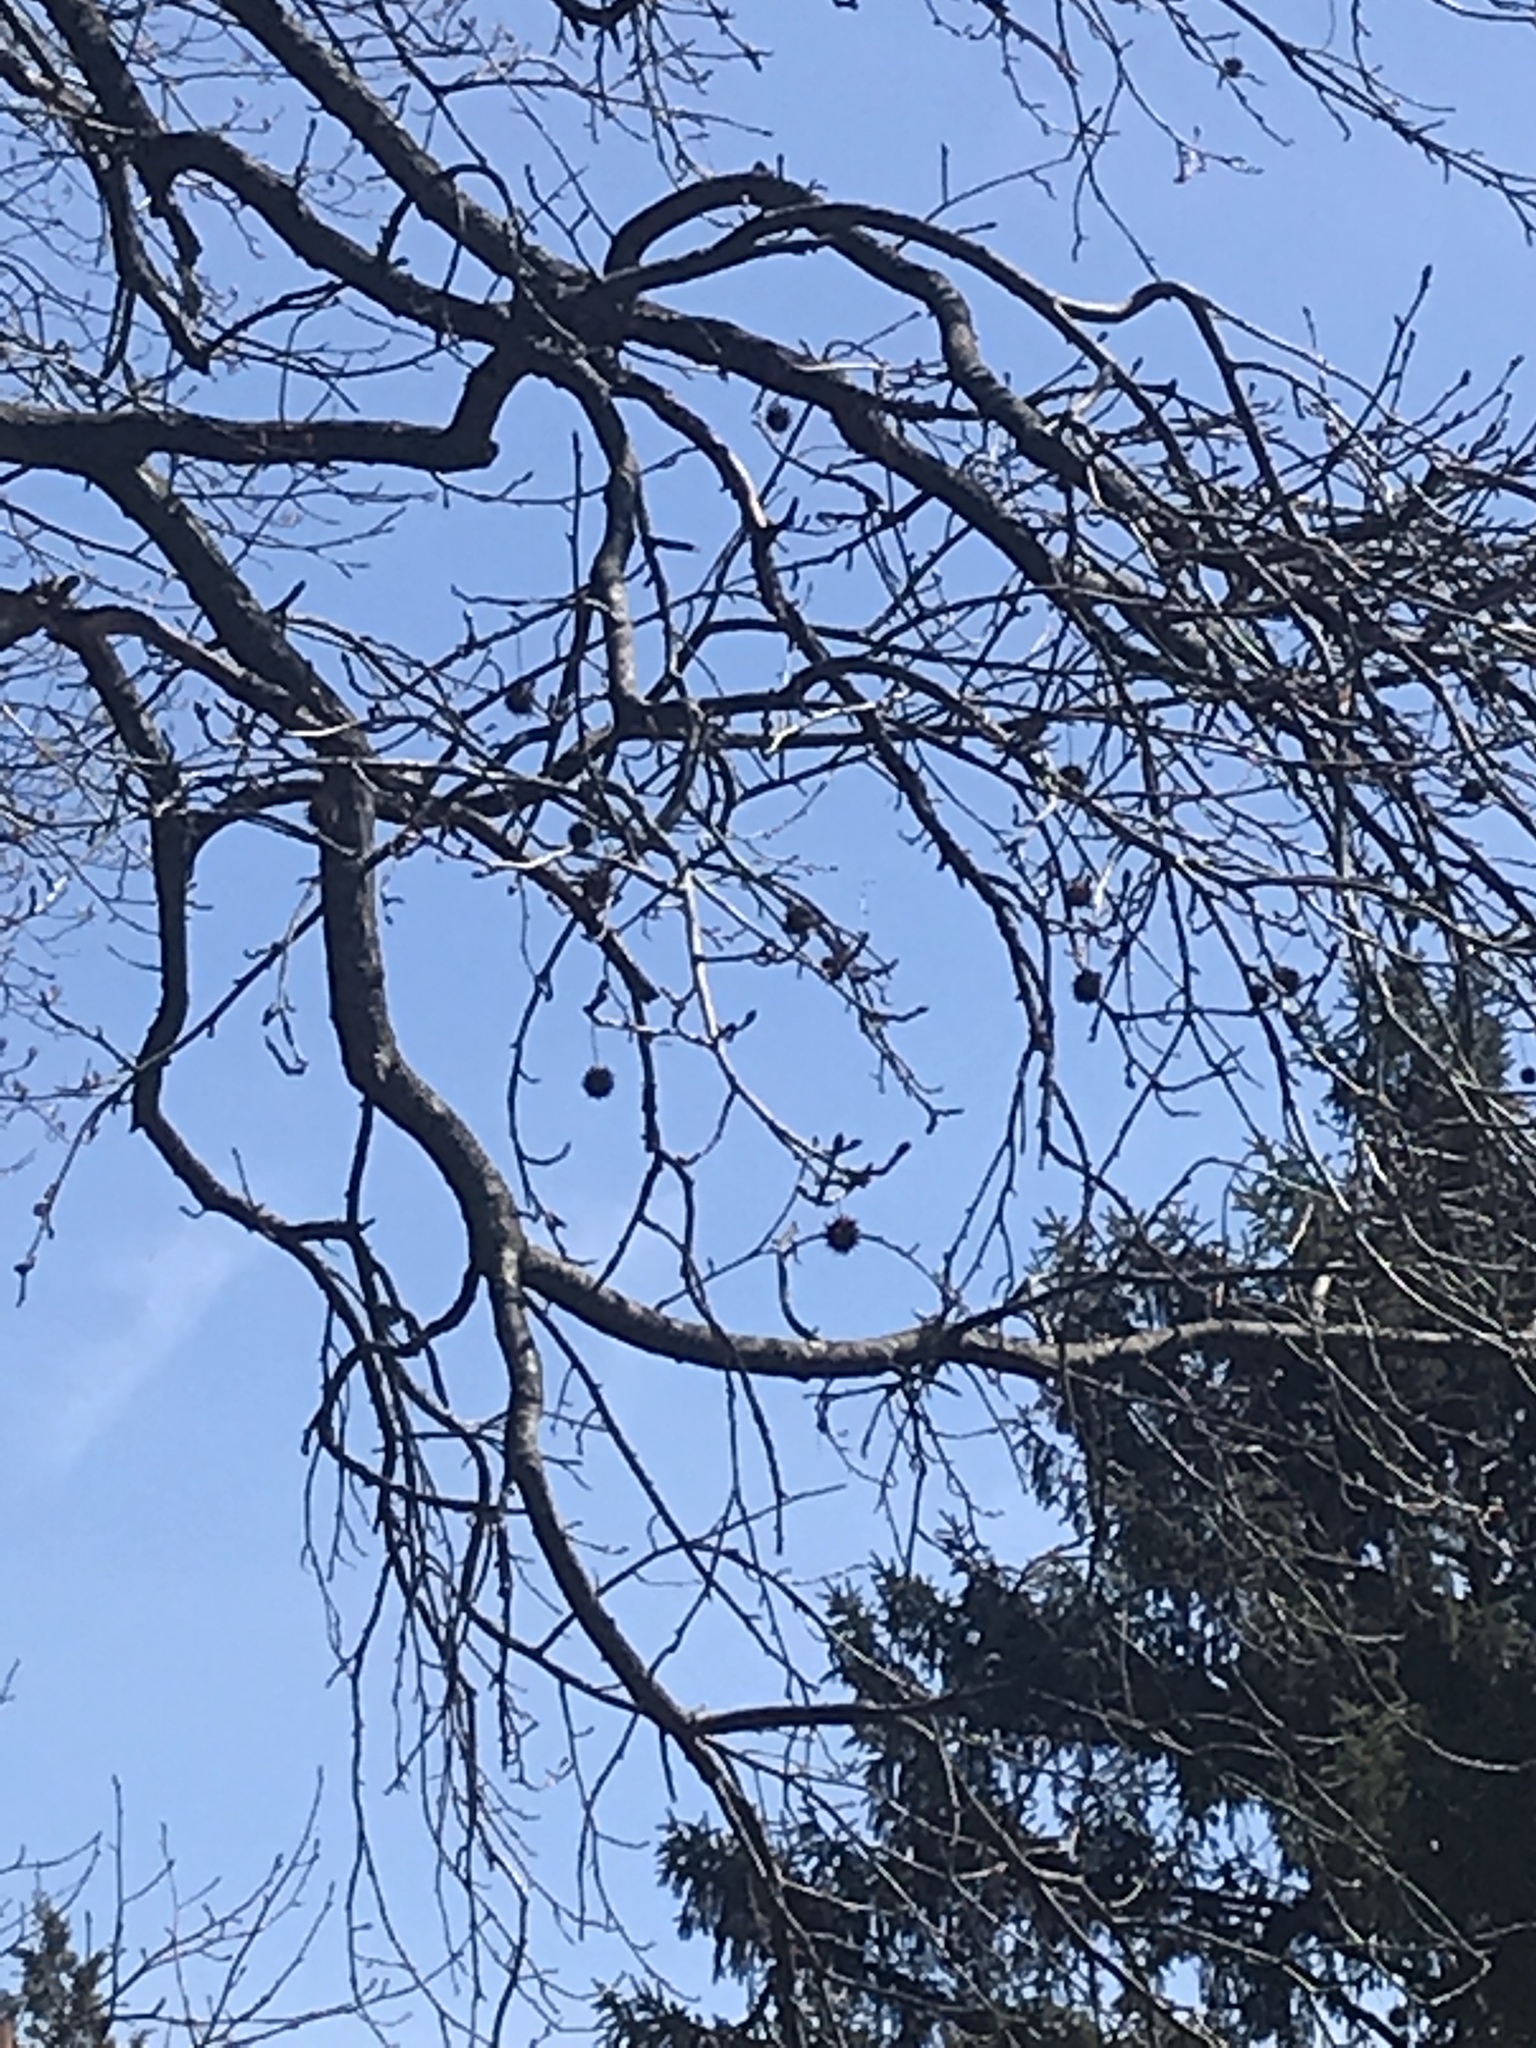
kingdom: Plantae
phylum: Tracheophyta
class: Magnoliopsida
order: Saxifragales
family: Altingiaceae
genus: Liquidambar
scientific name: Liquidambar styraciflua
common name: Sweet gum
